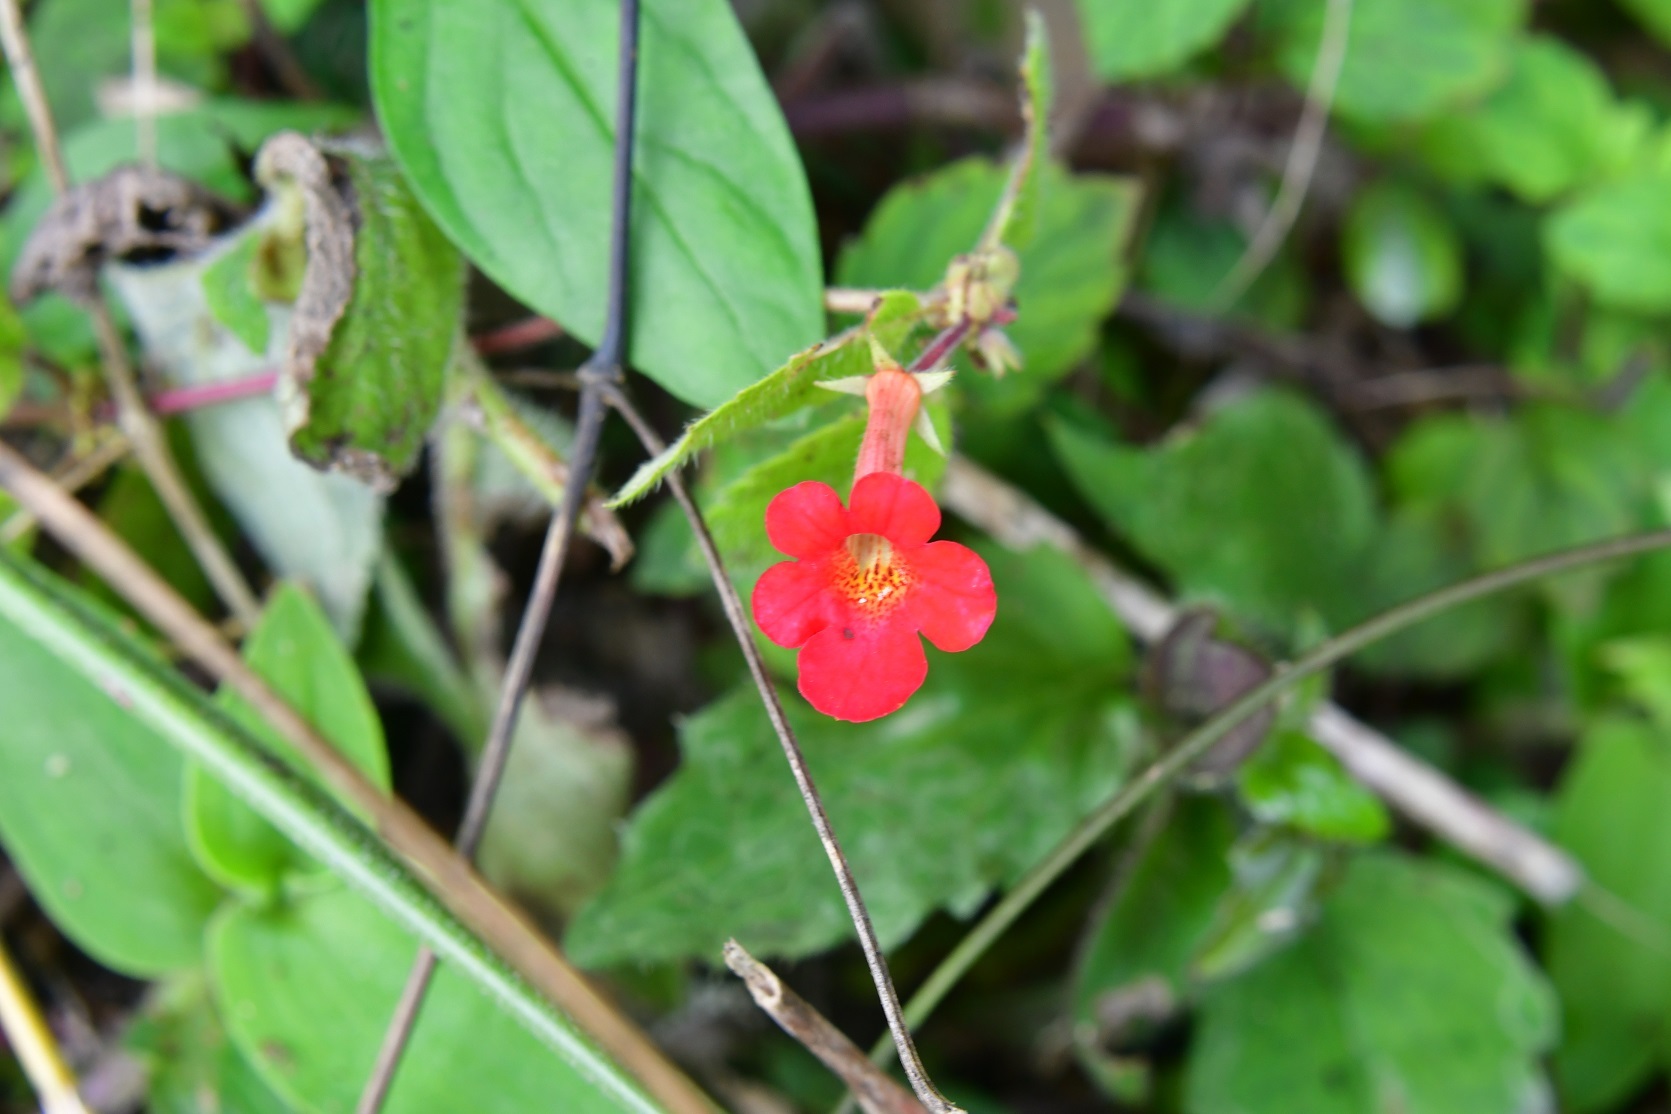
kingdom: Plantae
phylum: Tracheophyta
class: Magnoliopsida
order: Lamiales
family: Gesneriaceae
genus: Achimenes
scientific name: Achimenes erecta
